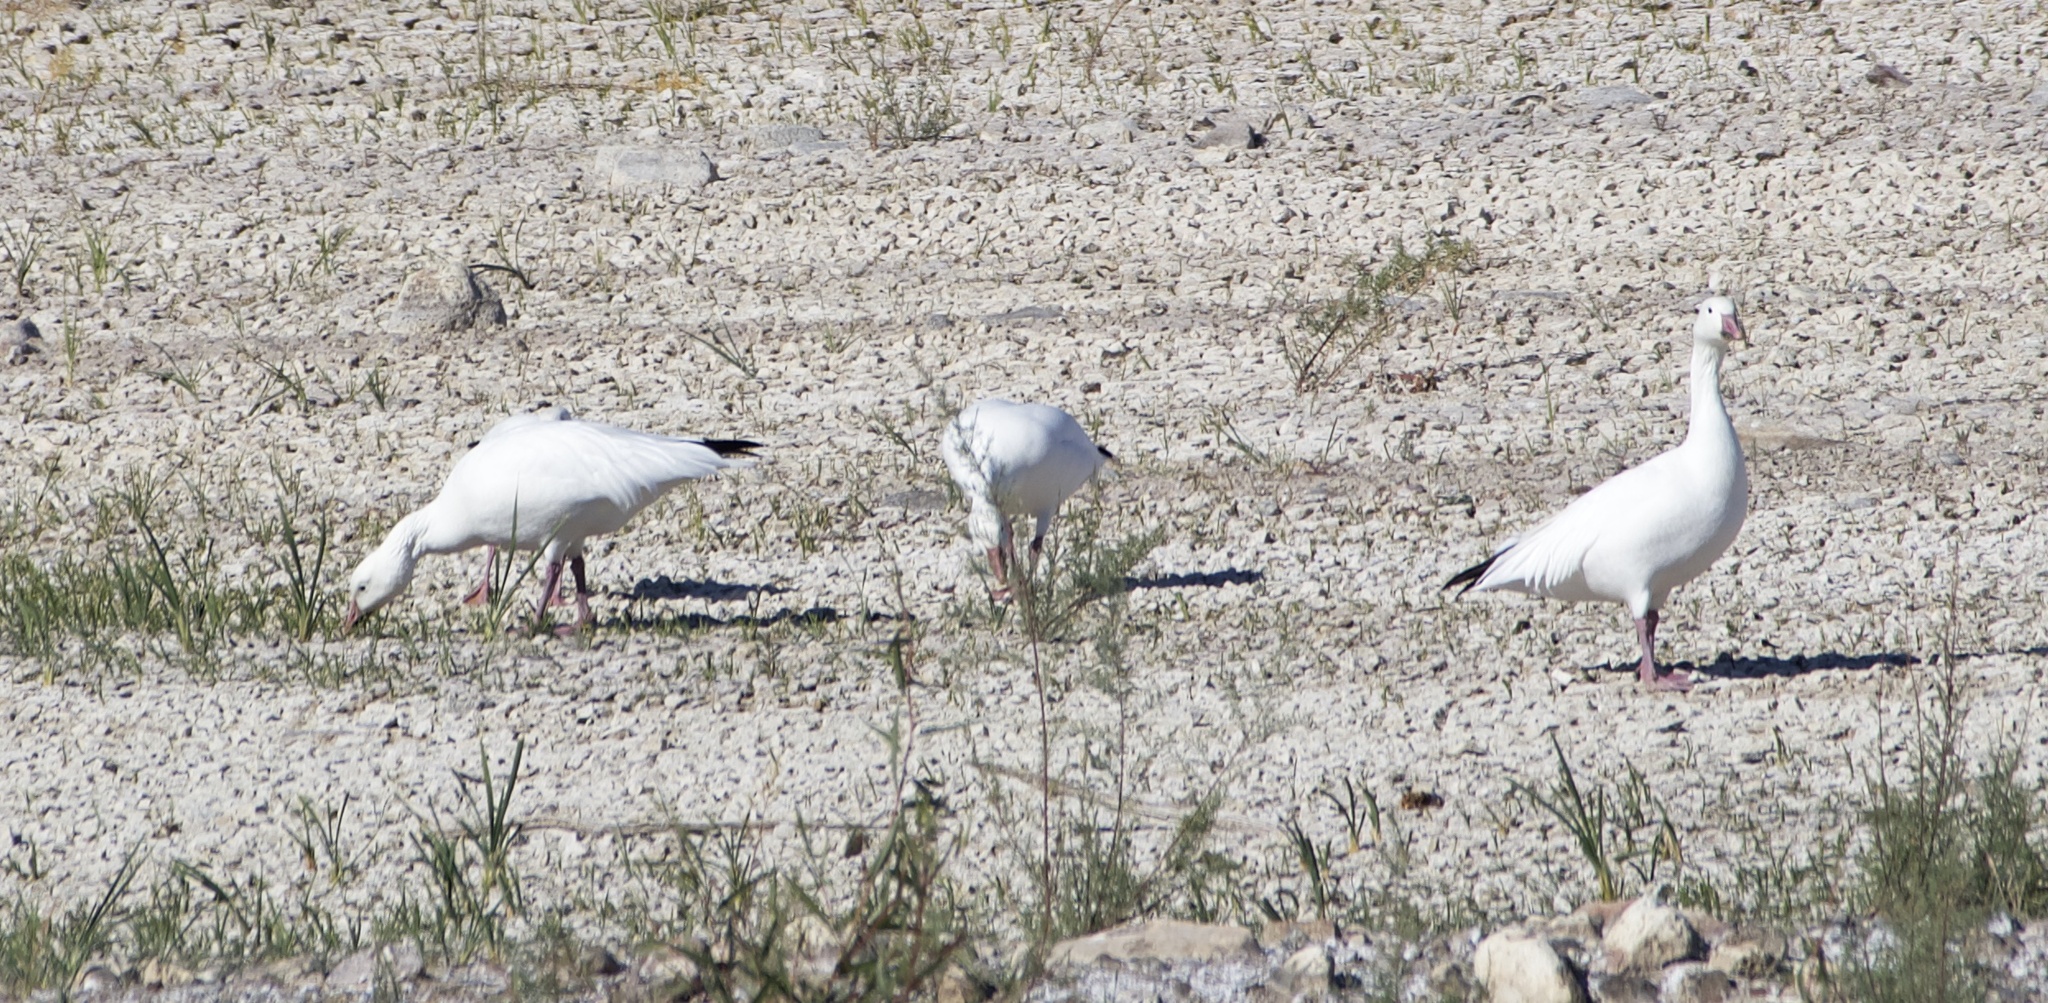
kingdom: Animalia
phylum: Chordata
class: Aves
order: Anseriformes
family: Anatidae
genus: Anser
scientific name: Anser caerulescens
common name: Snow goose
